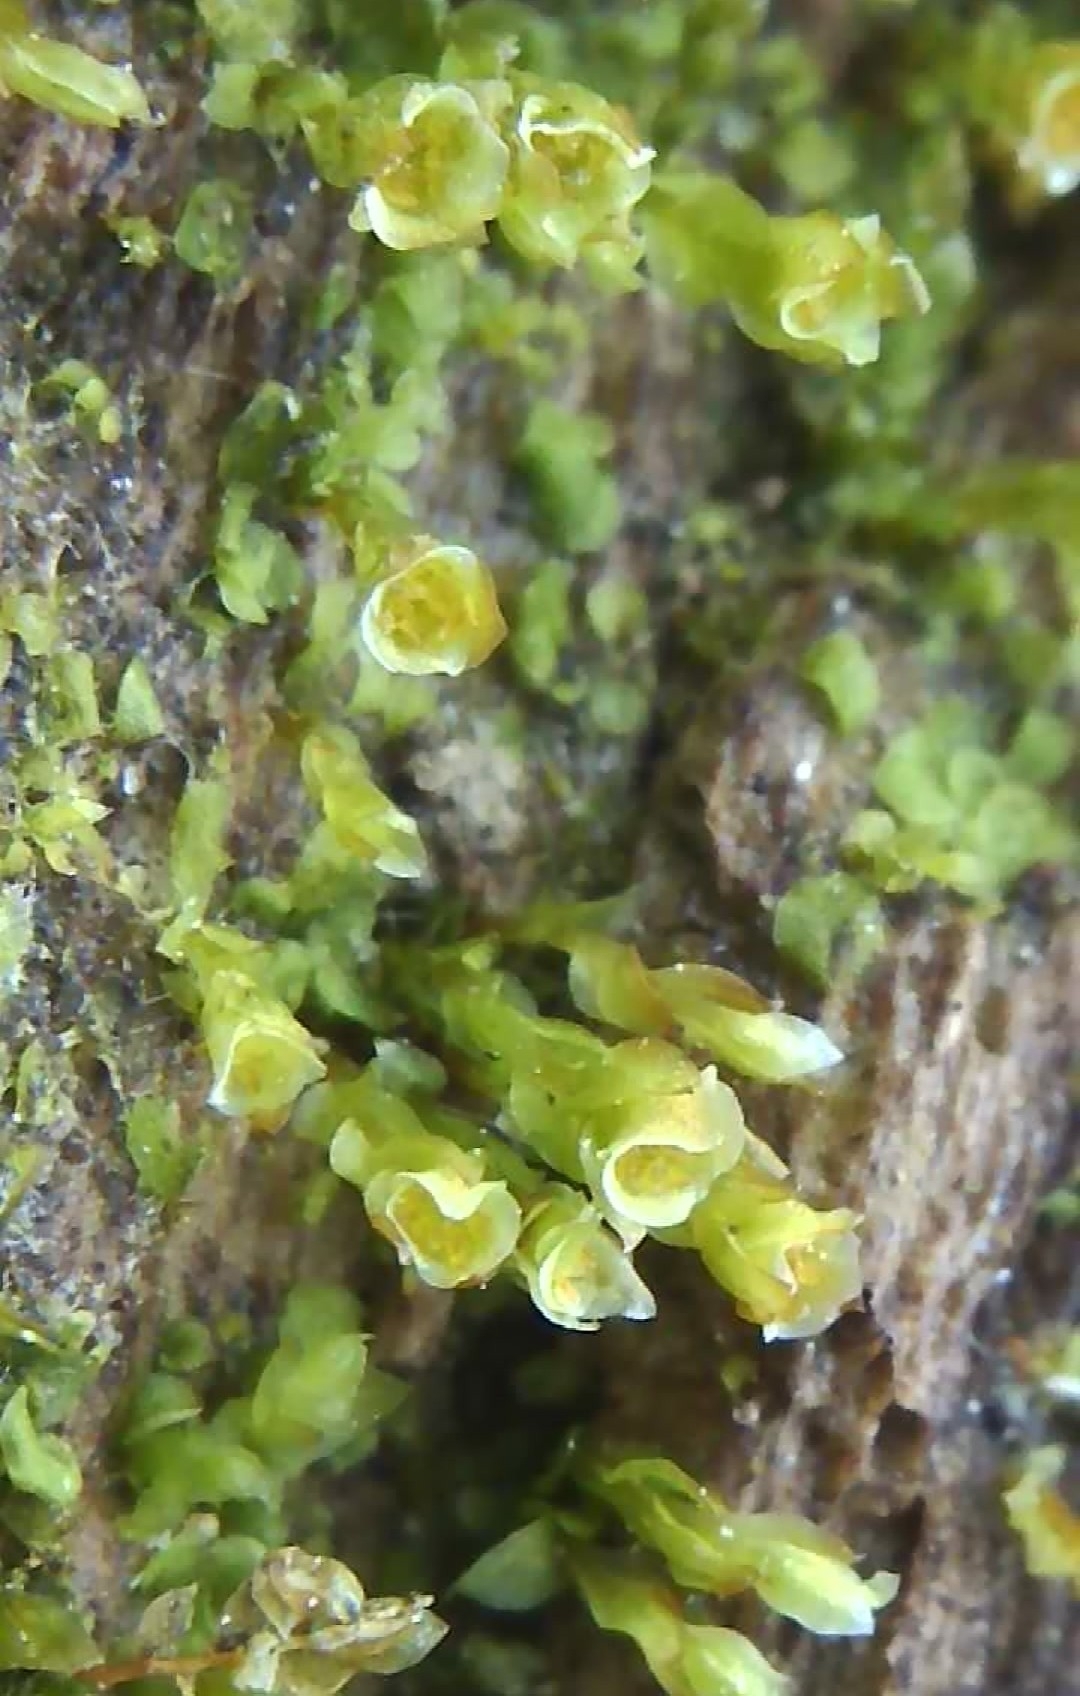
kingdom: Plantae
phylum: Bryophyta
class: Polytrichopsida
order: Tetraphidales
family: Tetraphidaceae
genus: Tetraphis
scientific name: Tetraphis pellucida
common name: Common four-toothed moss
